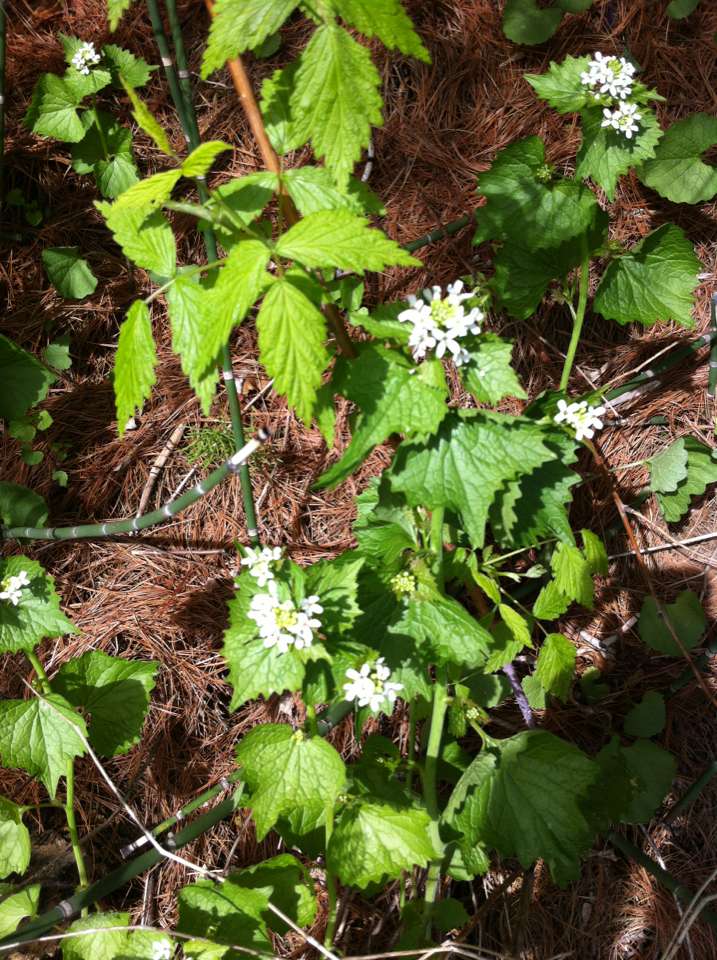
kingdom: Plantae
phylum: Tracheophyta
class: Magnoliopsida
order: Brassicales
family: Brassicaceae
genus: Alliaria
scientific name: Alliaria petiolata
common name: Garlic mustard
